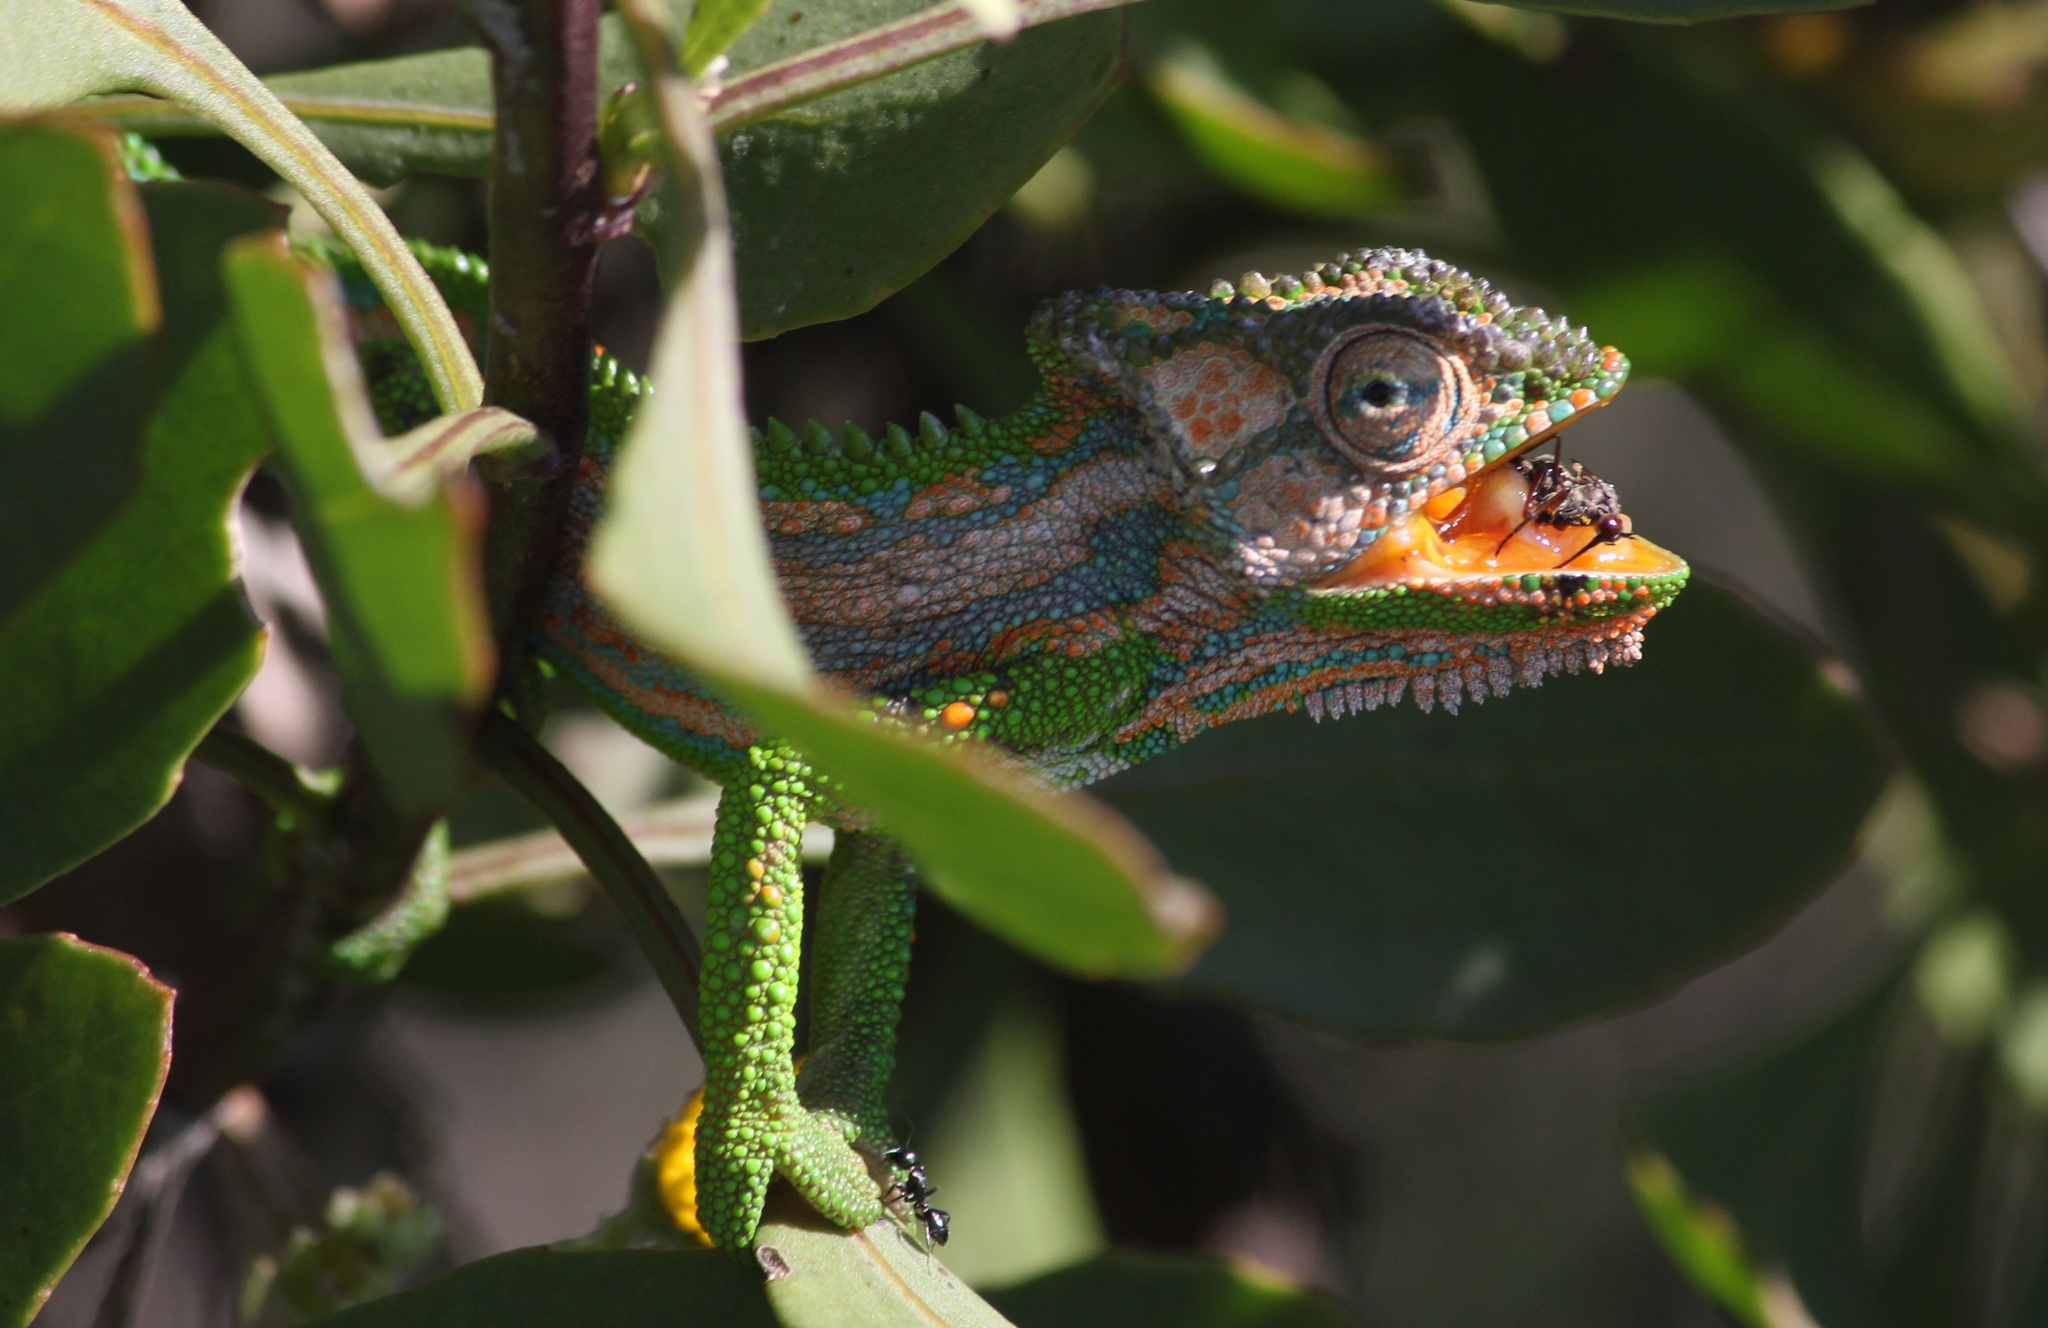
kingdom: Animalia
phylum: Chordata
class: Squamata
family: Chamaeleonidae
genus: Bradypodion
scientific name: Bradypodion pumilum
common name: Cape dwarf chameleon
